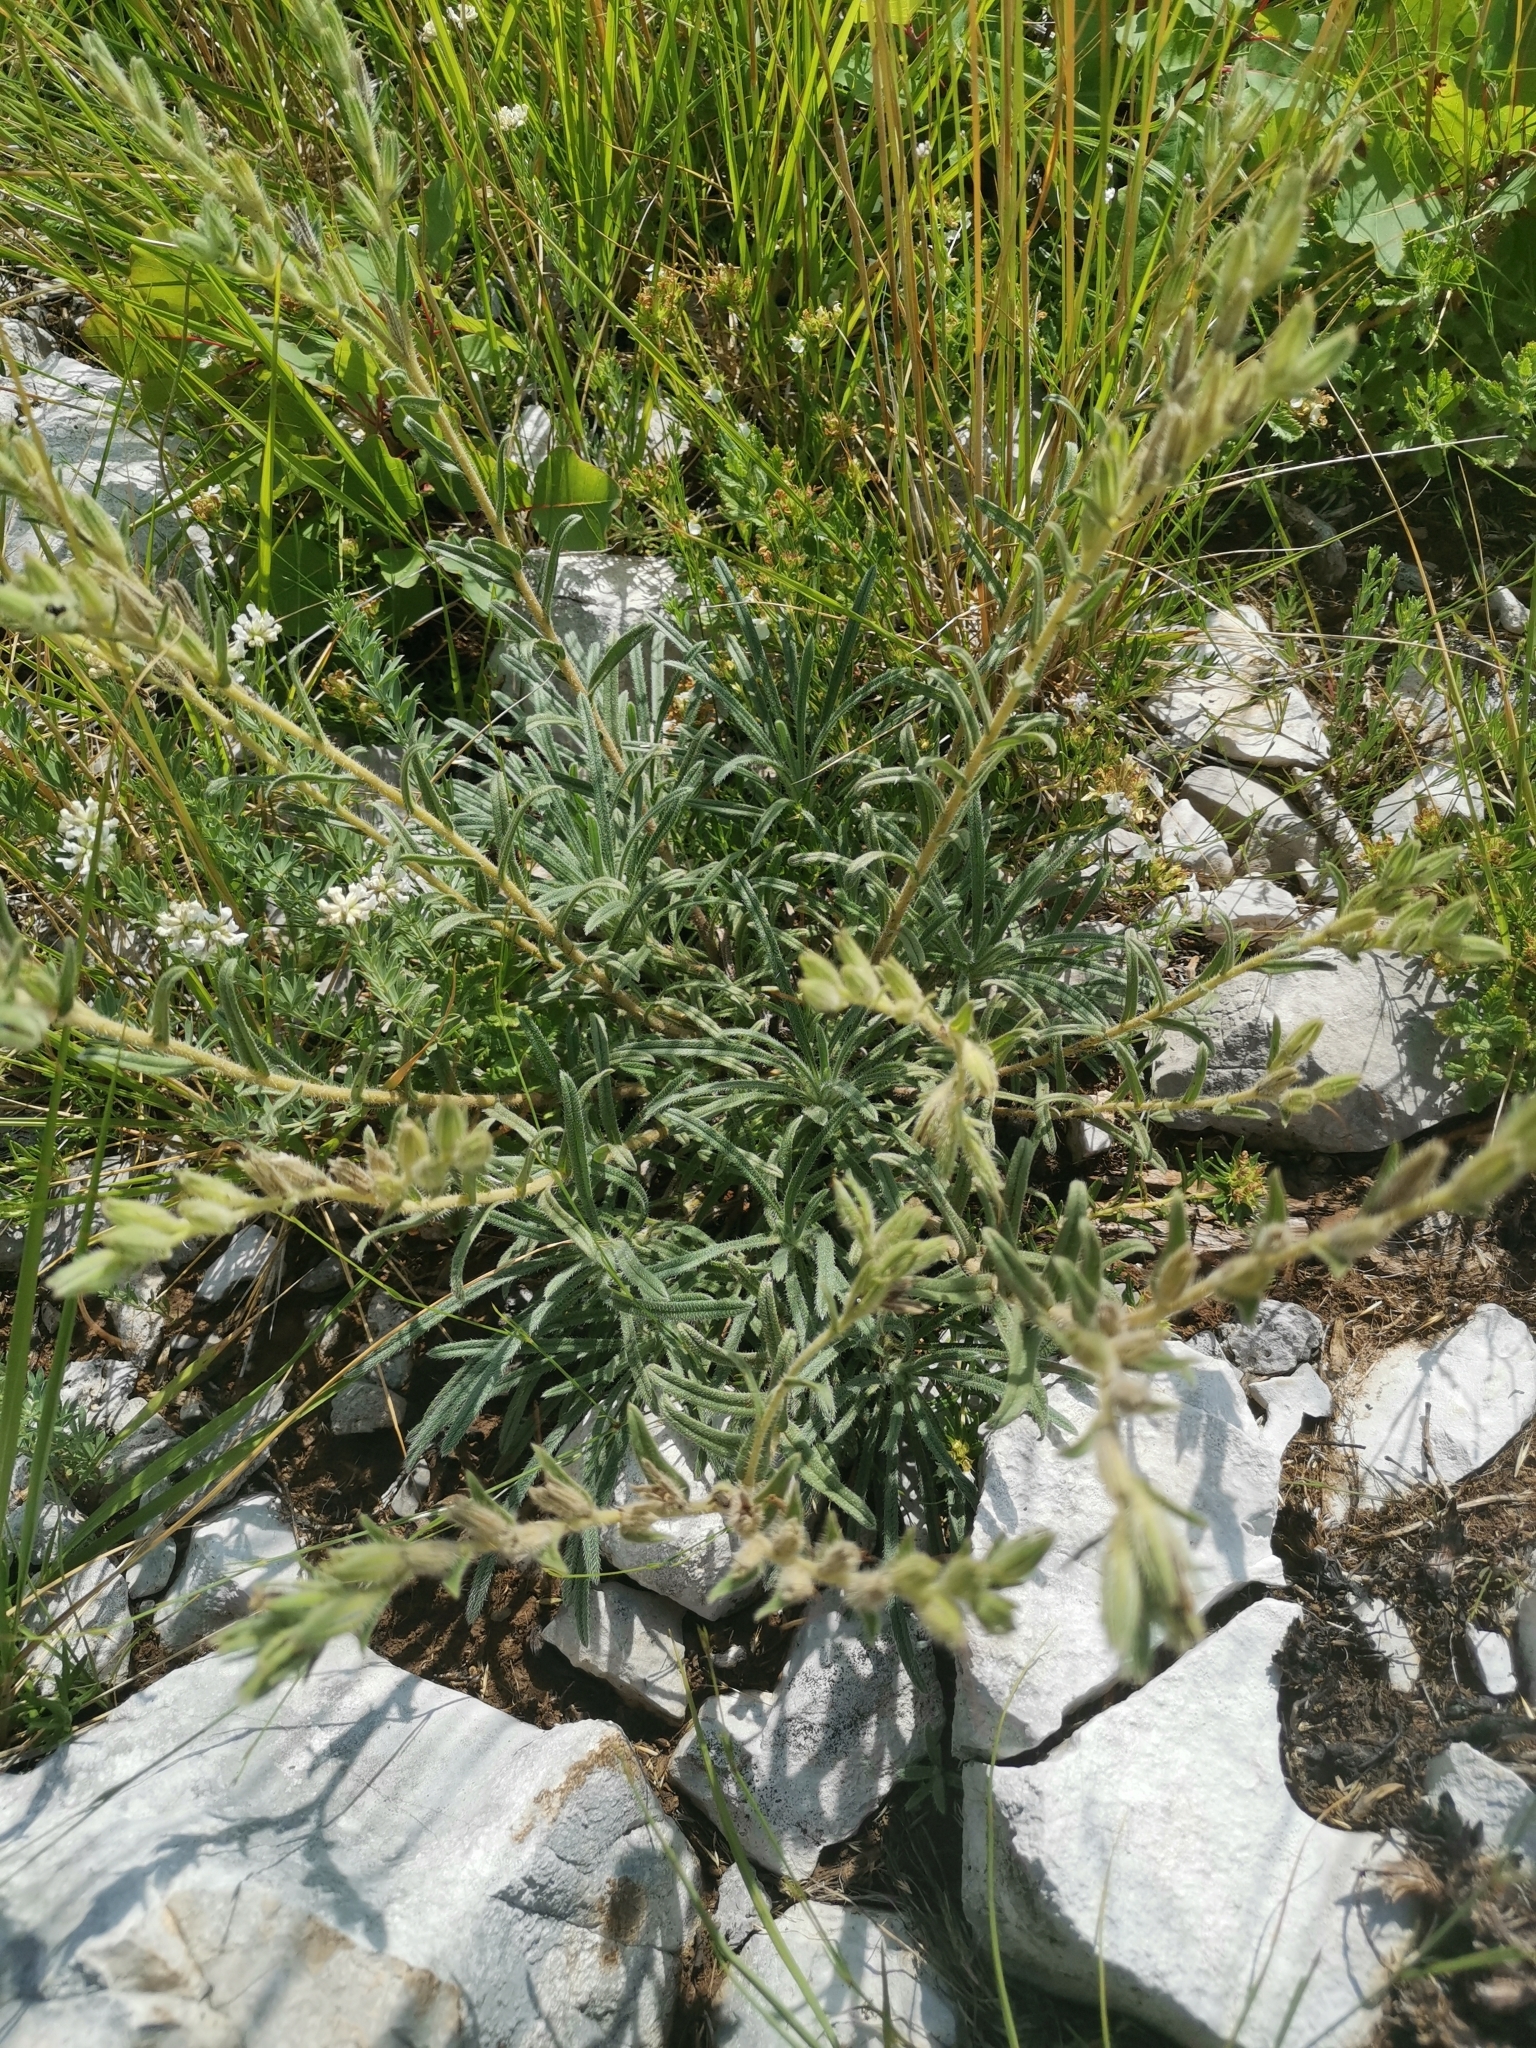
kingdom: Plantae
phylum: Tracheophyta
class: Magnoliopsida
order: Boraginales
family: Boraginaceae
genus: Onosma
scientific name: Onosma echioides
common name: Goldendrop
